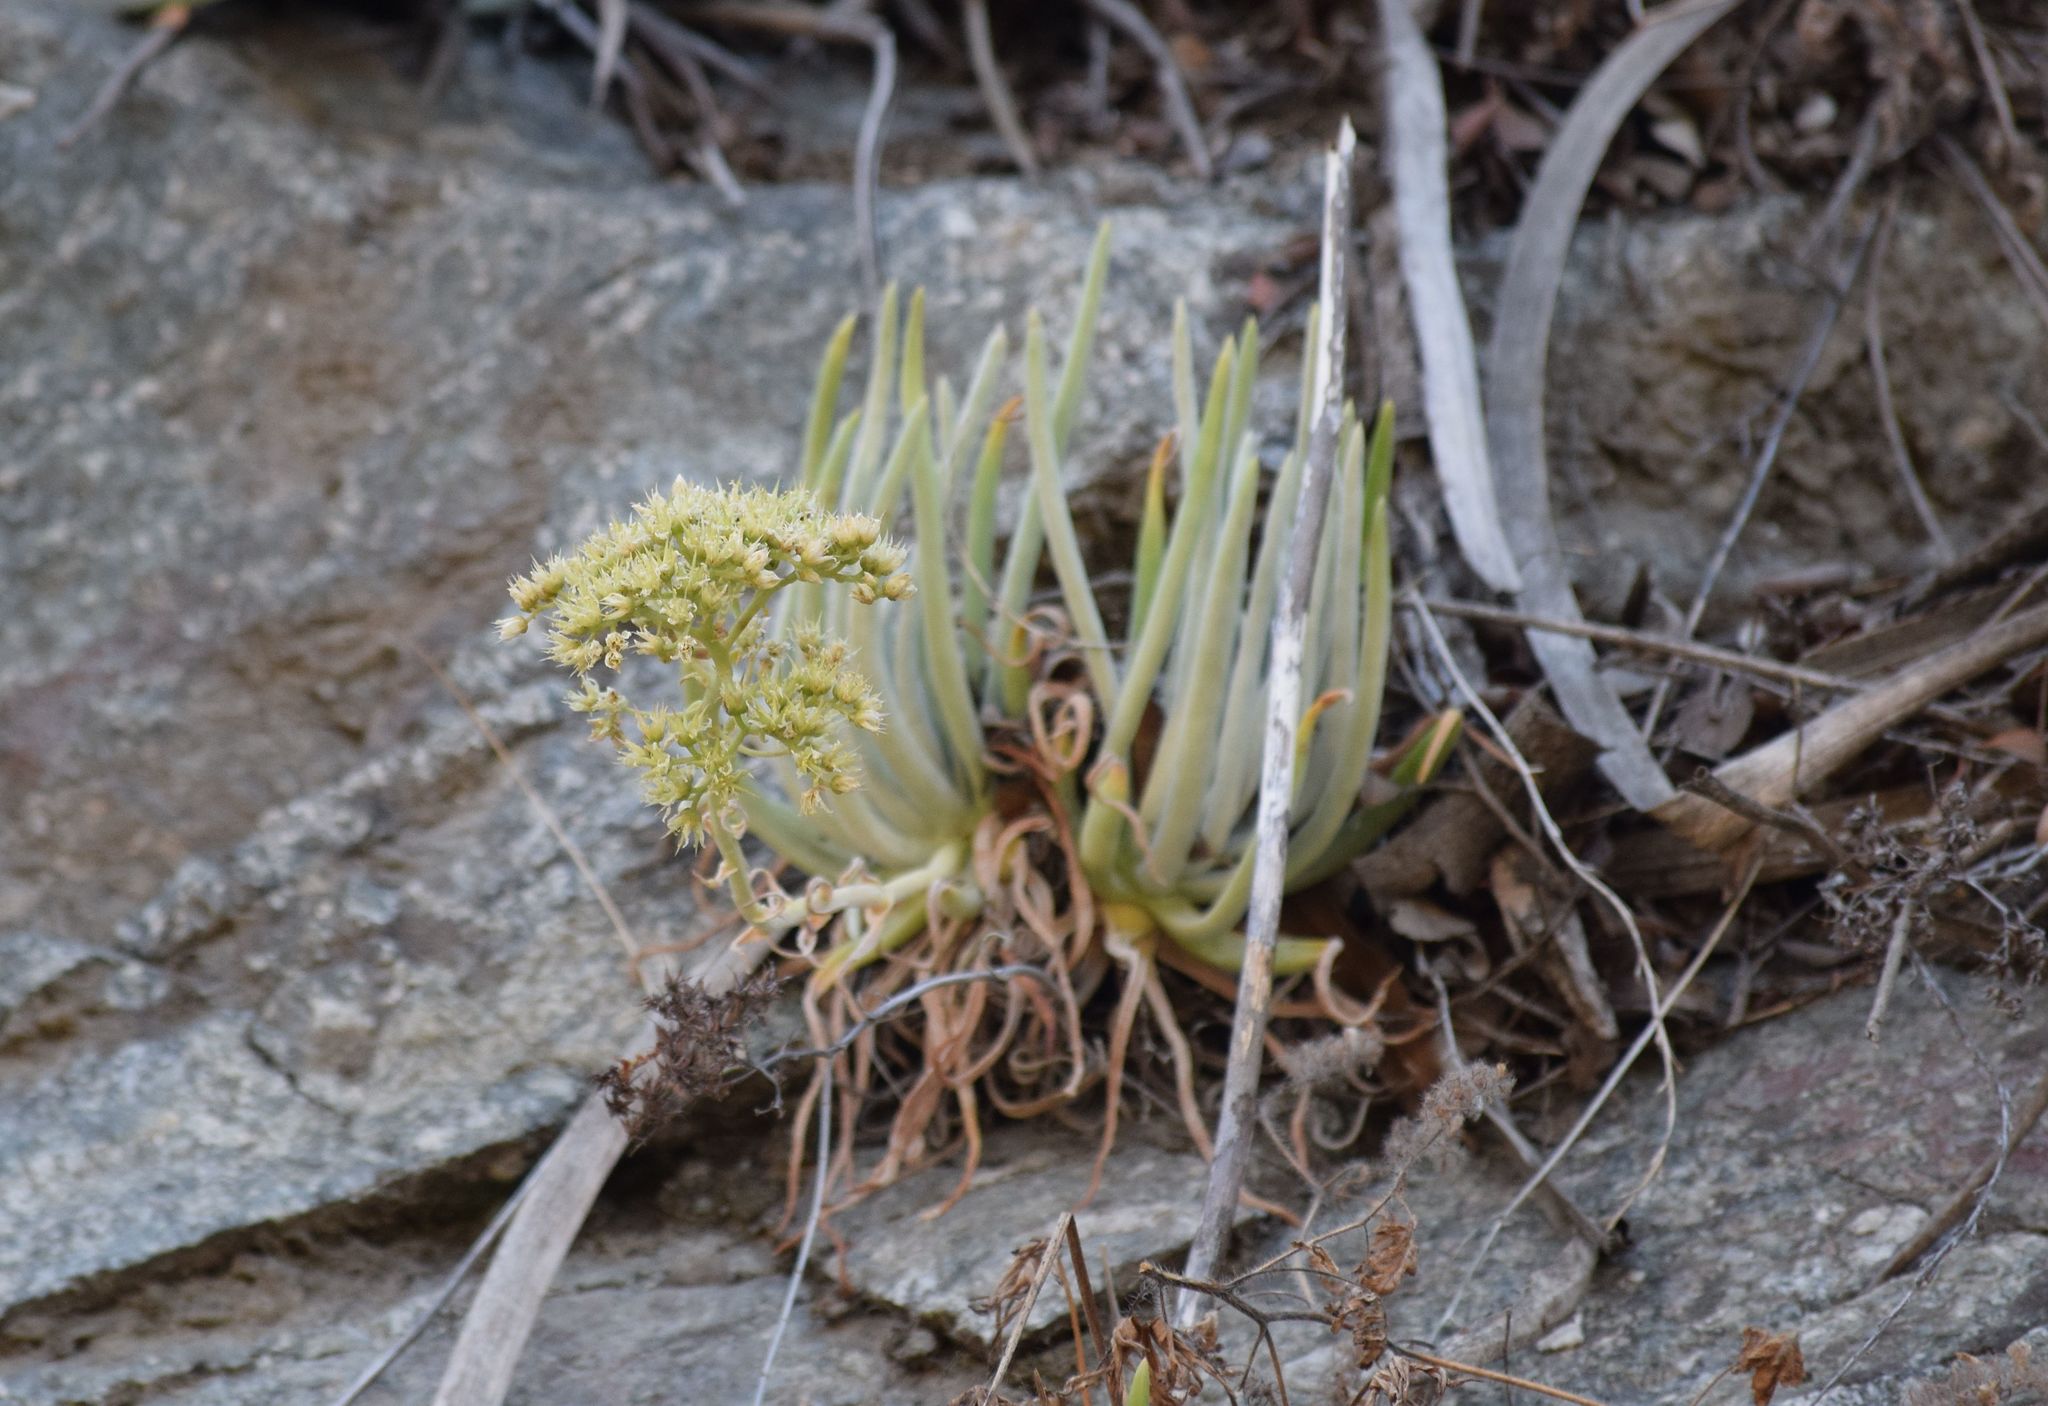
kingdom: Plantae
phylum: Tracheophyta
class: Magnoliopsida
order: Saxifragales
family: Crassulaceae
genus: Dudleya
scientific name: Dudleya densiflora
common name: San gabriel mountains dudleya
